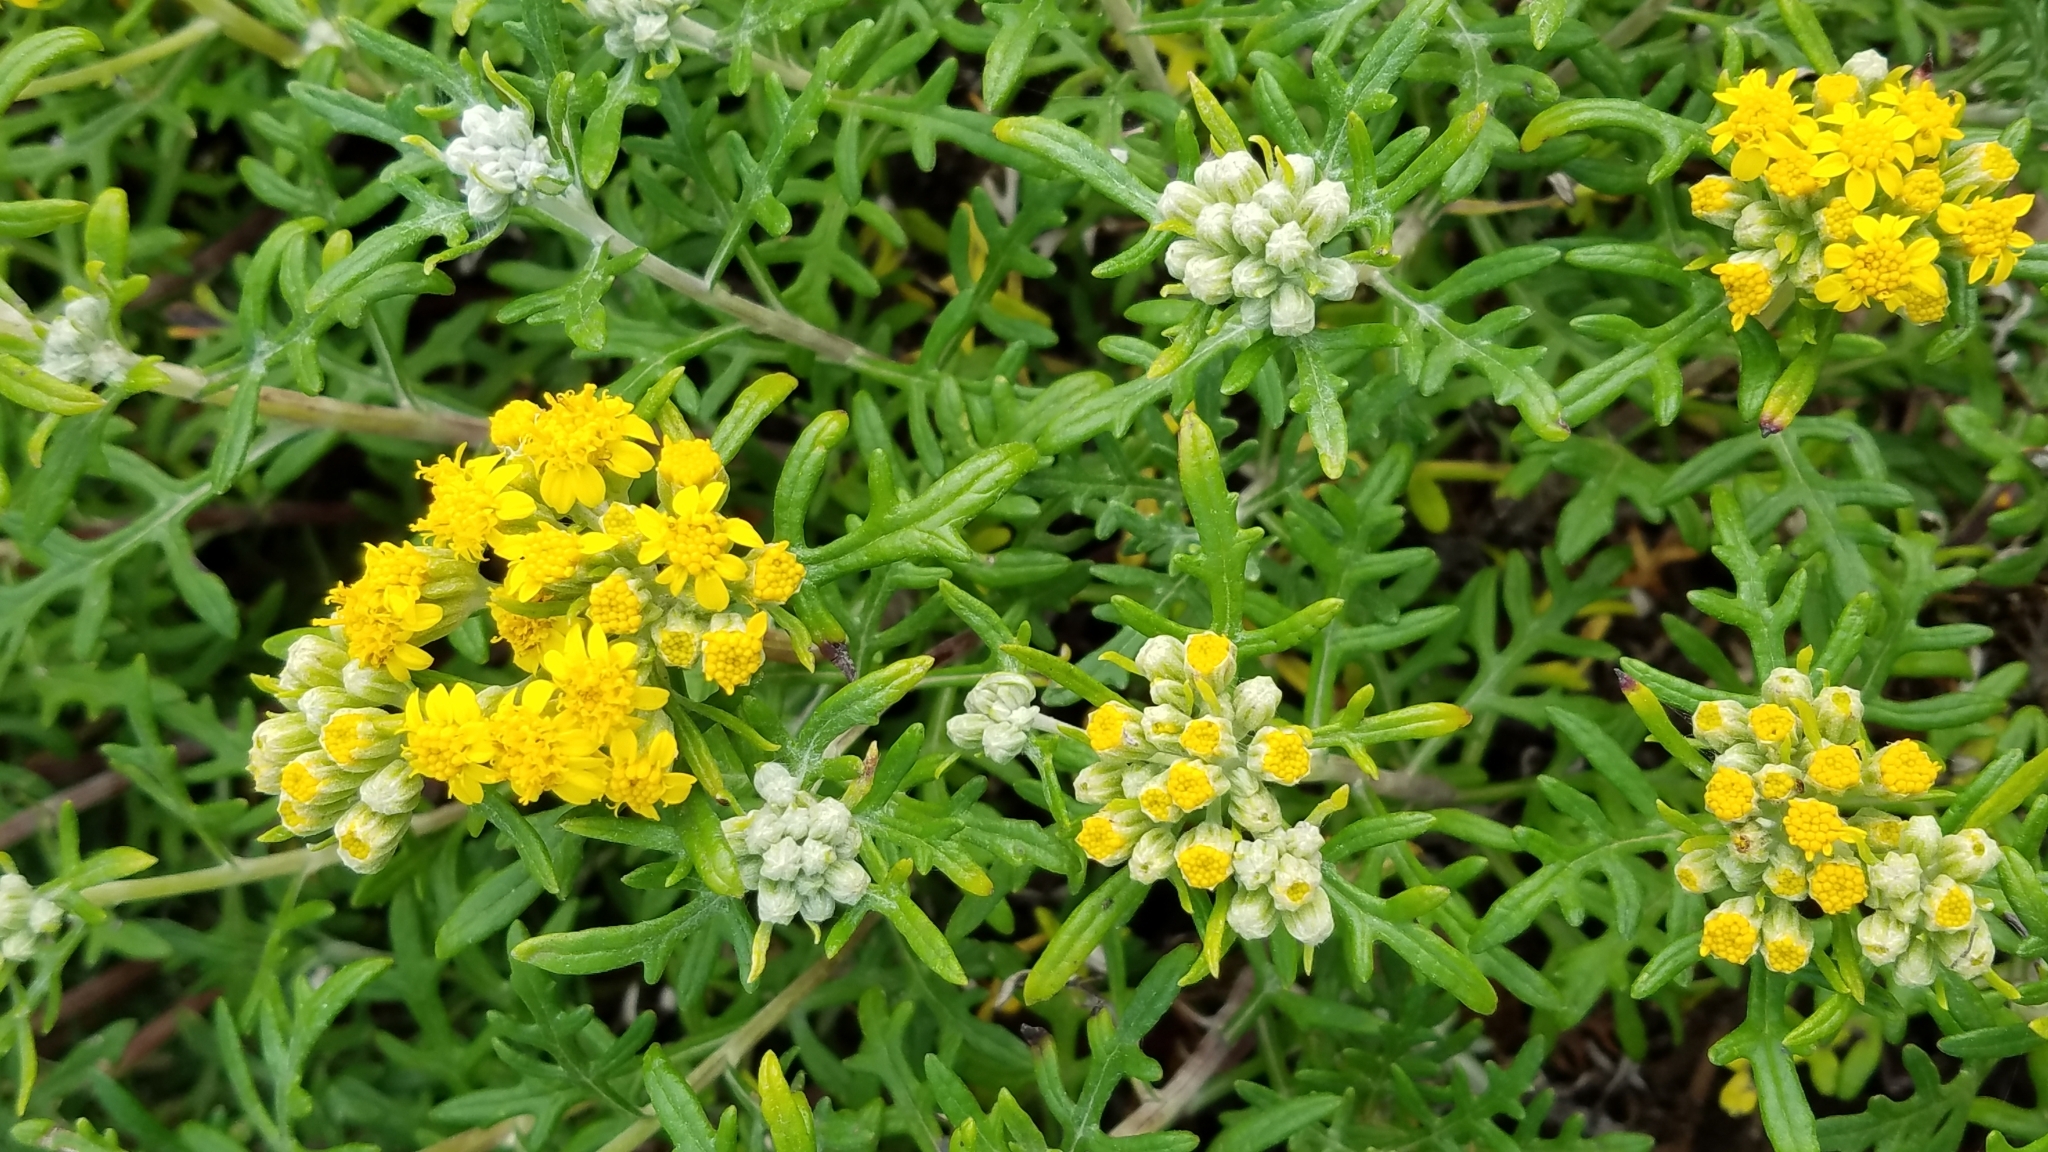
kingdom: Plantae
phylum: Tracheophyta
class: Magnoliopsida
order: Asterales
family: Asteraceae
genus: Eriophyllum
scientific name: Eriophyllum staechadifolium
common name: Lizardtail
